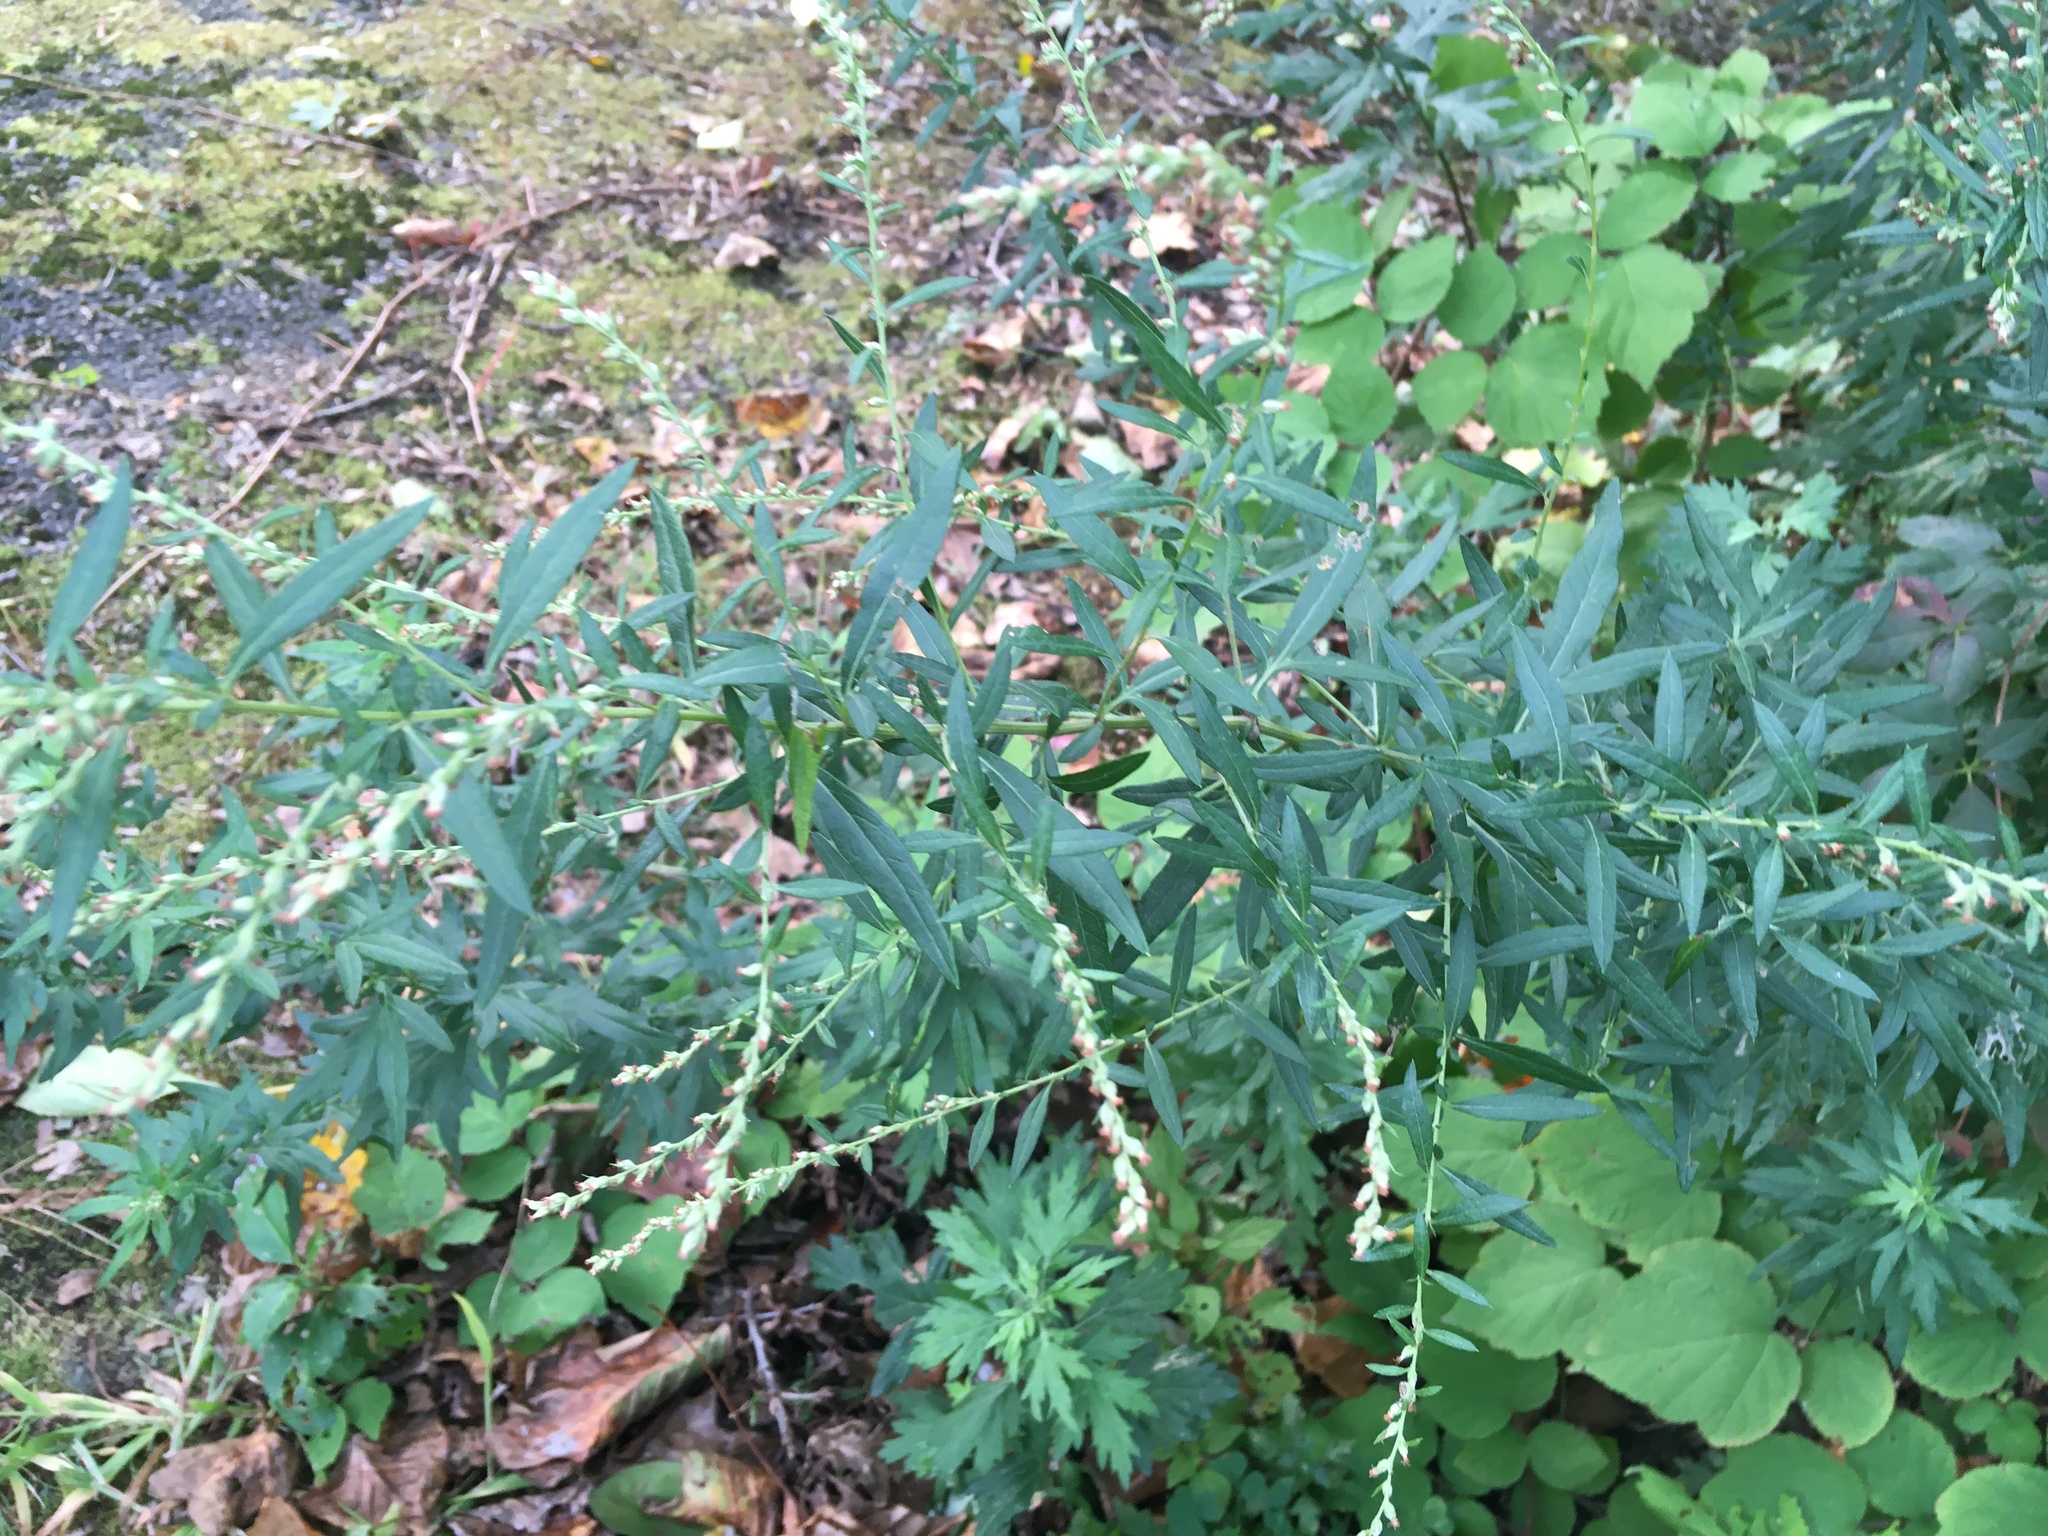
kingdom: Plantae
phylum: Tracheophyta
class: Magnoliopsida
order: Asterales
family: Asteraceae
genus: Artemisia
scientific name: Artemisia vulgaris
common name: Mugwort
